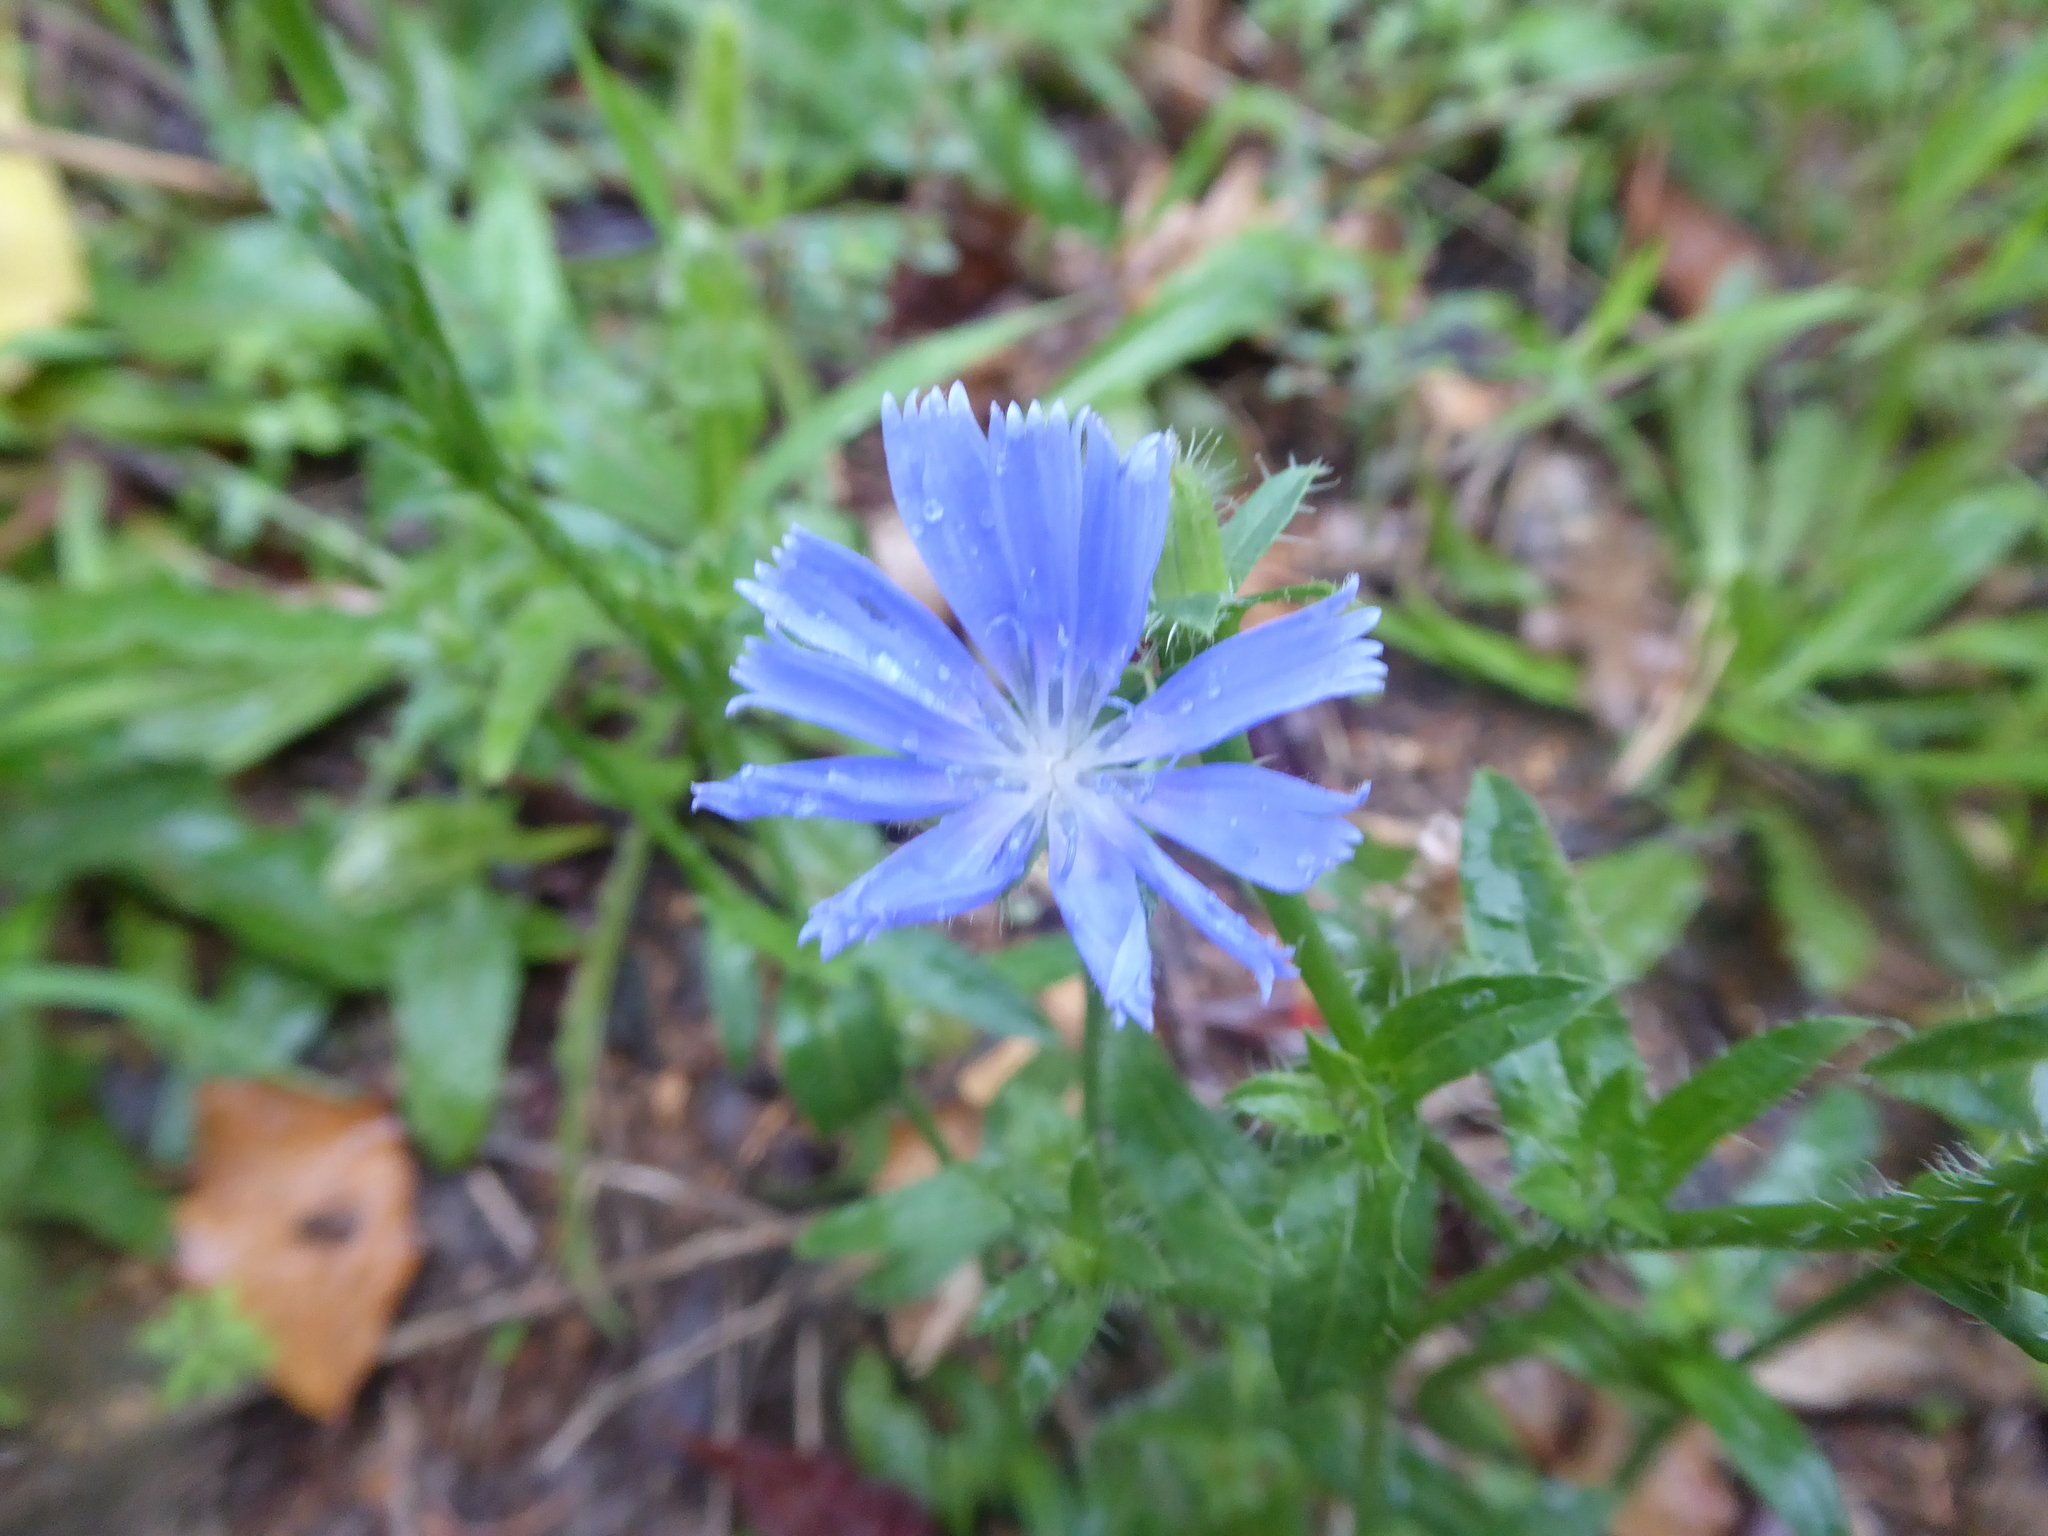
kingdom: Plantae
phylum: Tracheophyta
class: Magnoliopsida
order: Asterales
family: Asteraceae
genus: Cichorium
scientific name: Cichorium intybus
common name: Chicory
